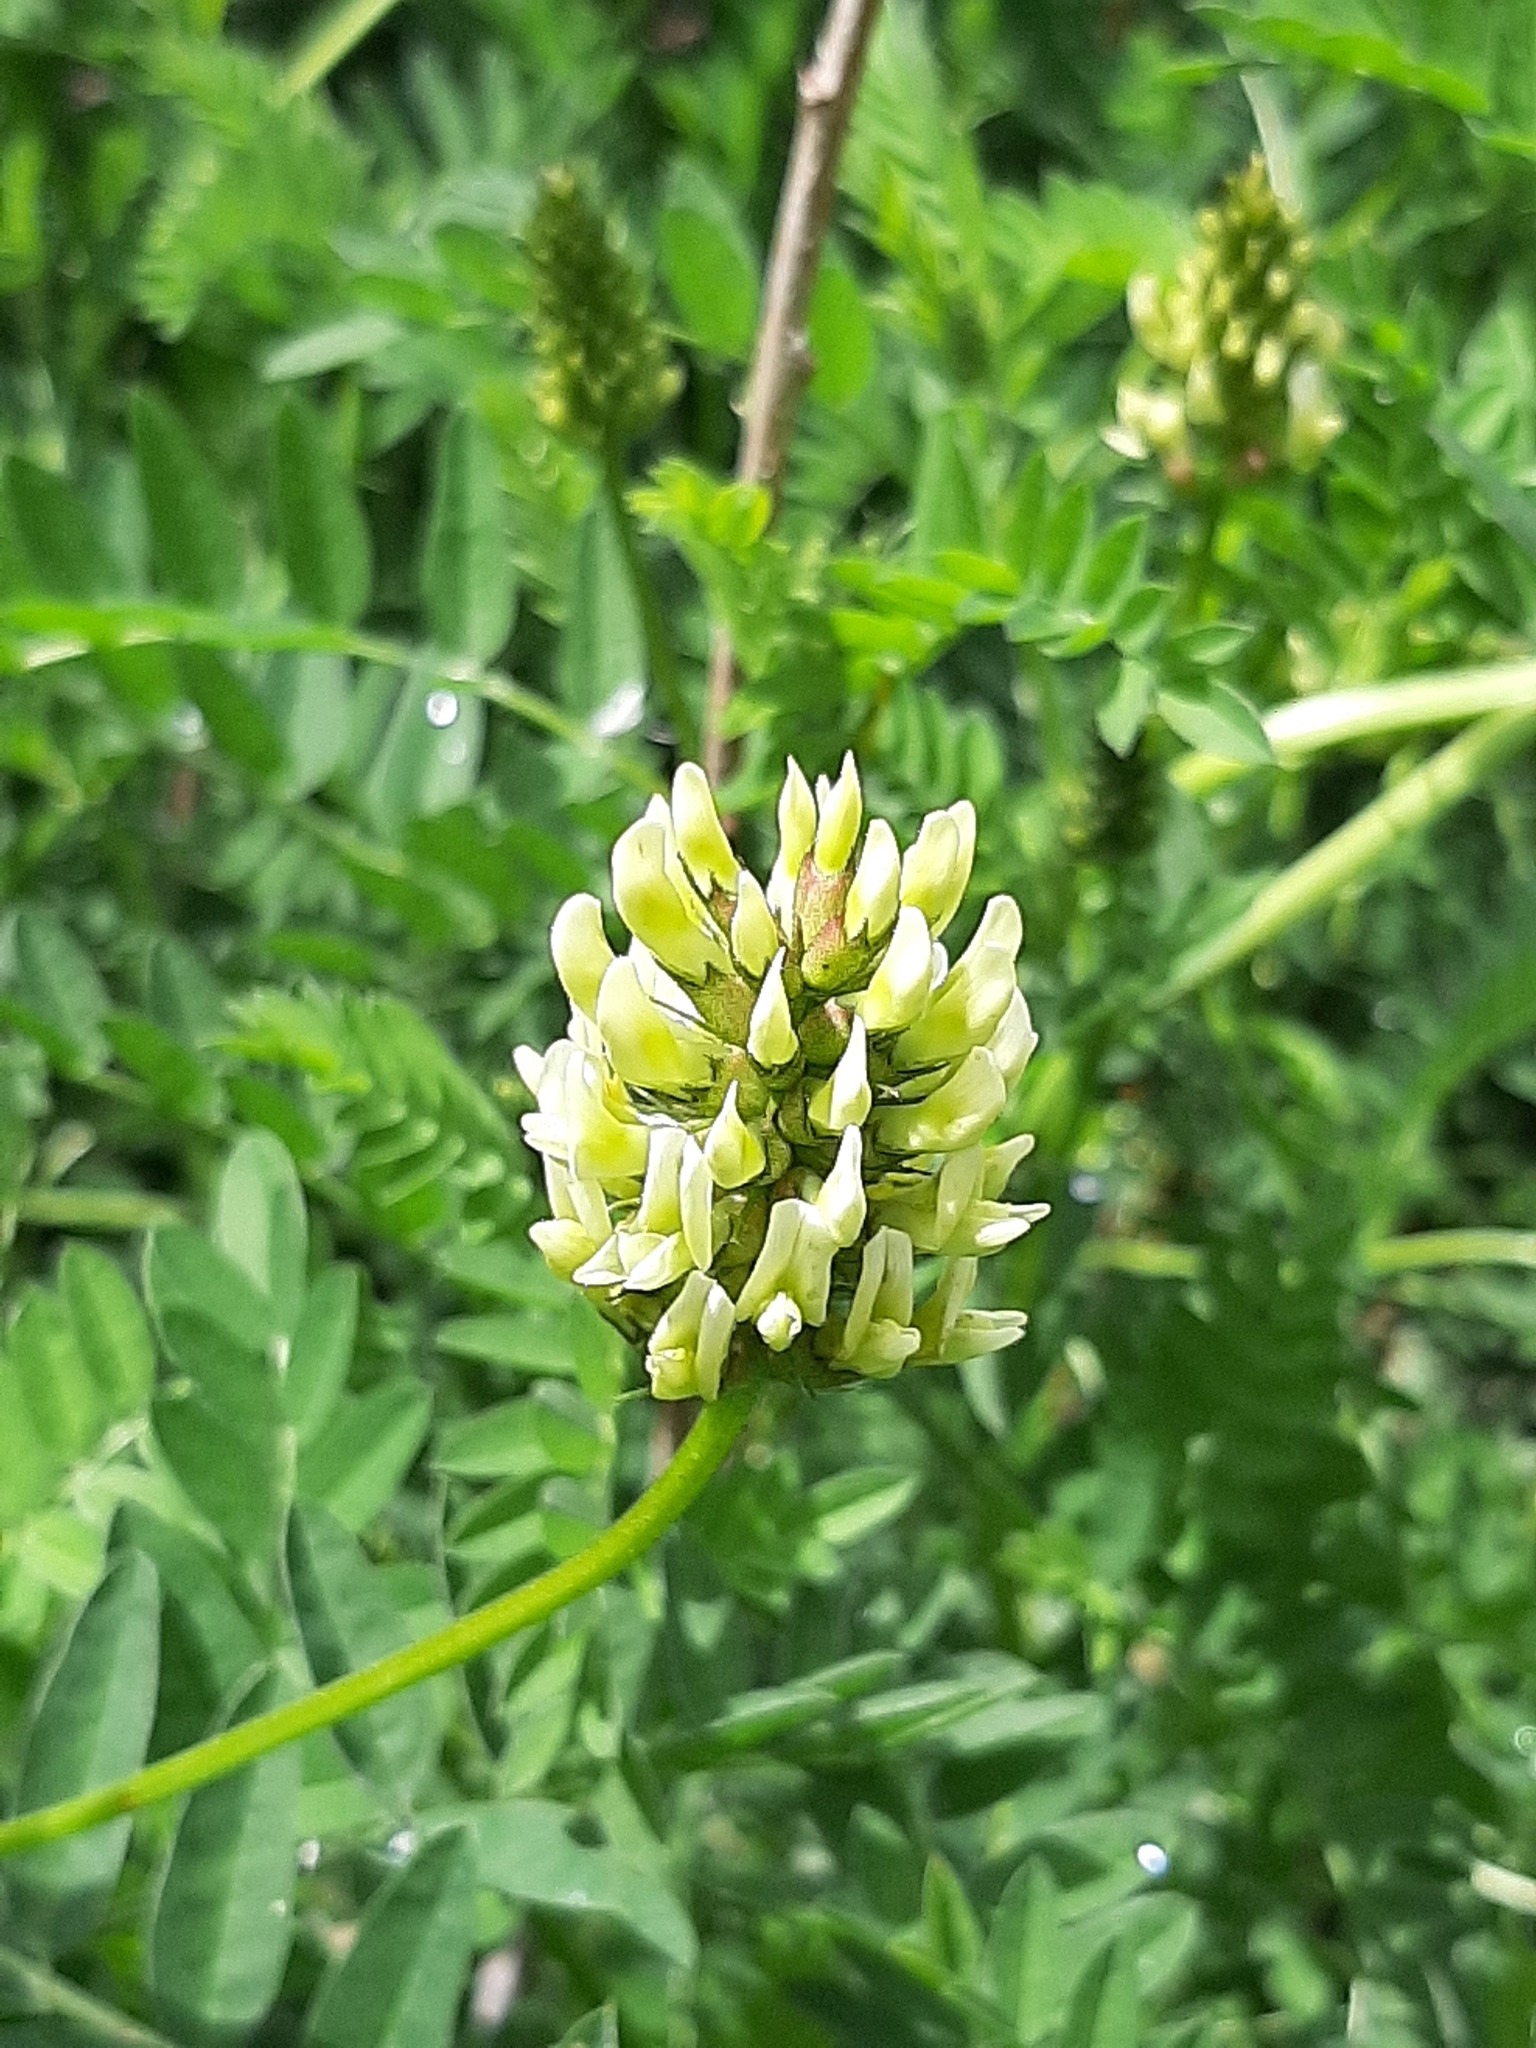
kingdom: Plantae
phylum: Tracheophyta
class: Magnoliopsida
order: Fabales
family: Fabaceae
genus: Astragalus
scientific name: Astragalus cicer
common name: Chick-pea milk-vetch
